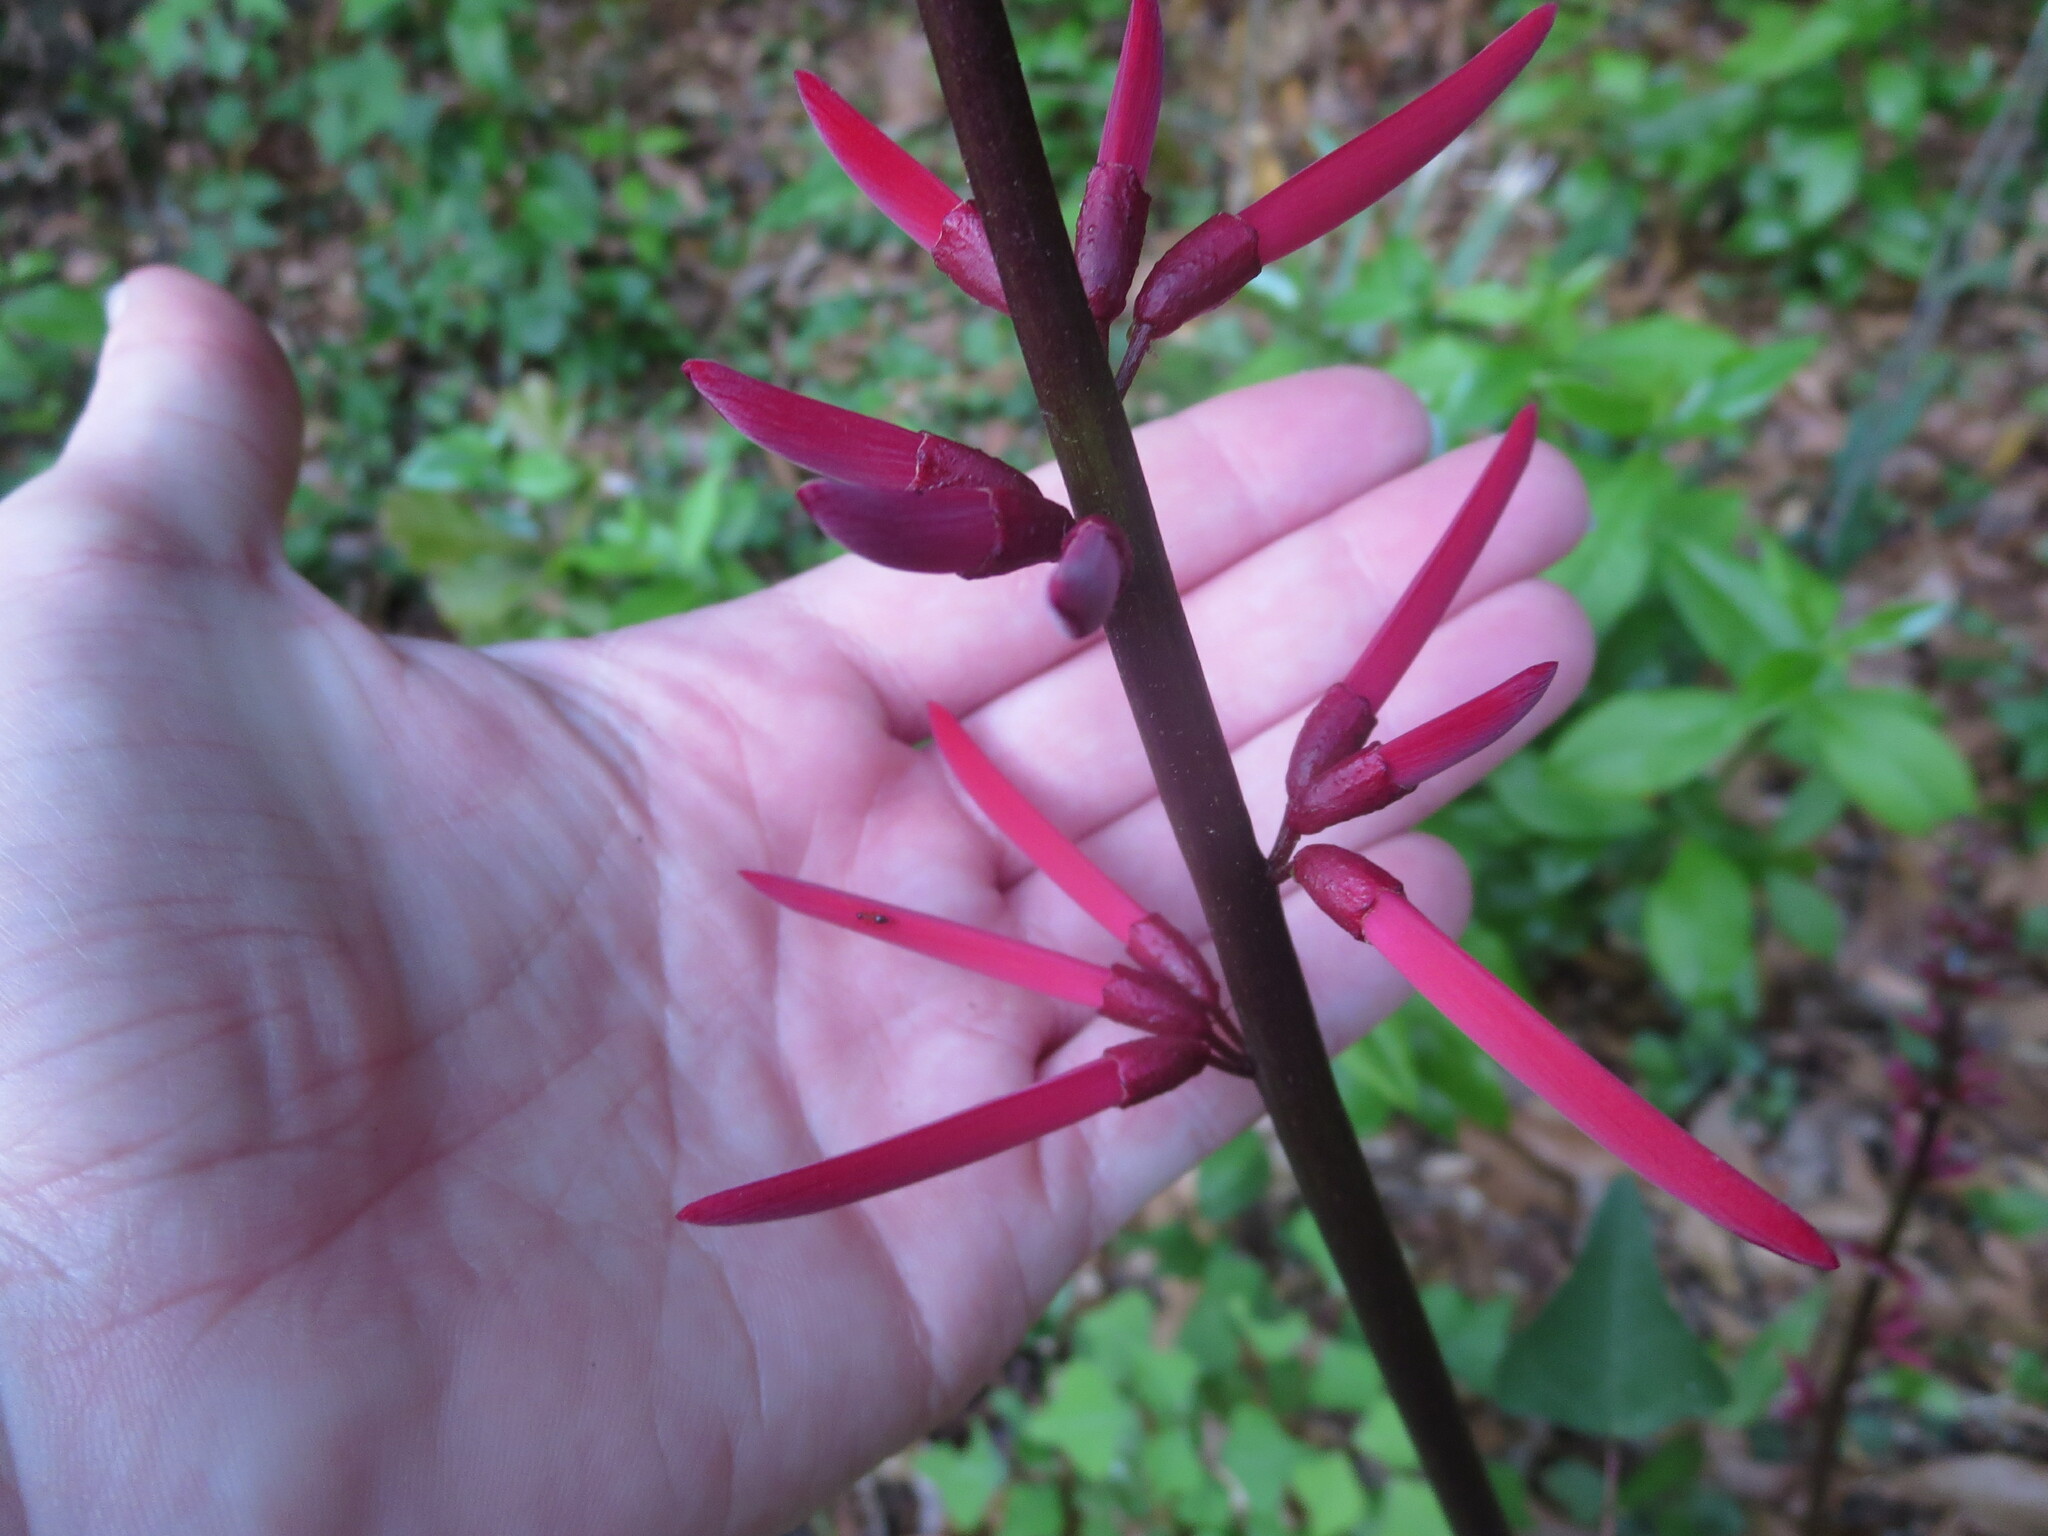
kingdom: Plantae
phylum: Tracheophyta
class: Magnoliopsida
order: Fabales
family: Fabaceae
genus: Erythrina
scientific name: Erythrina herbacea
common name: Coral-bean
